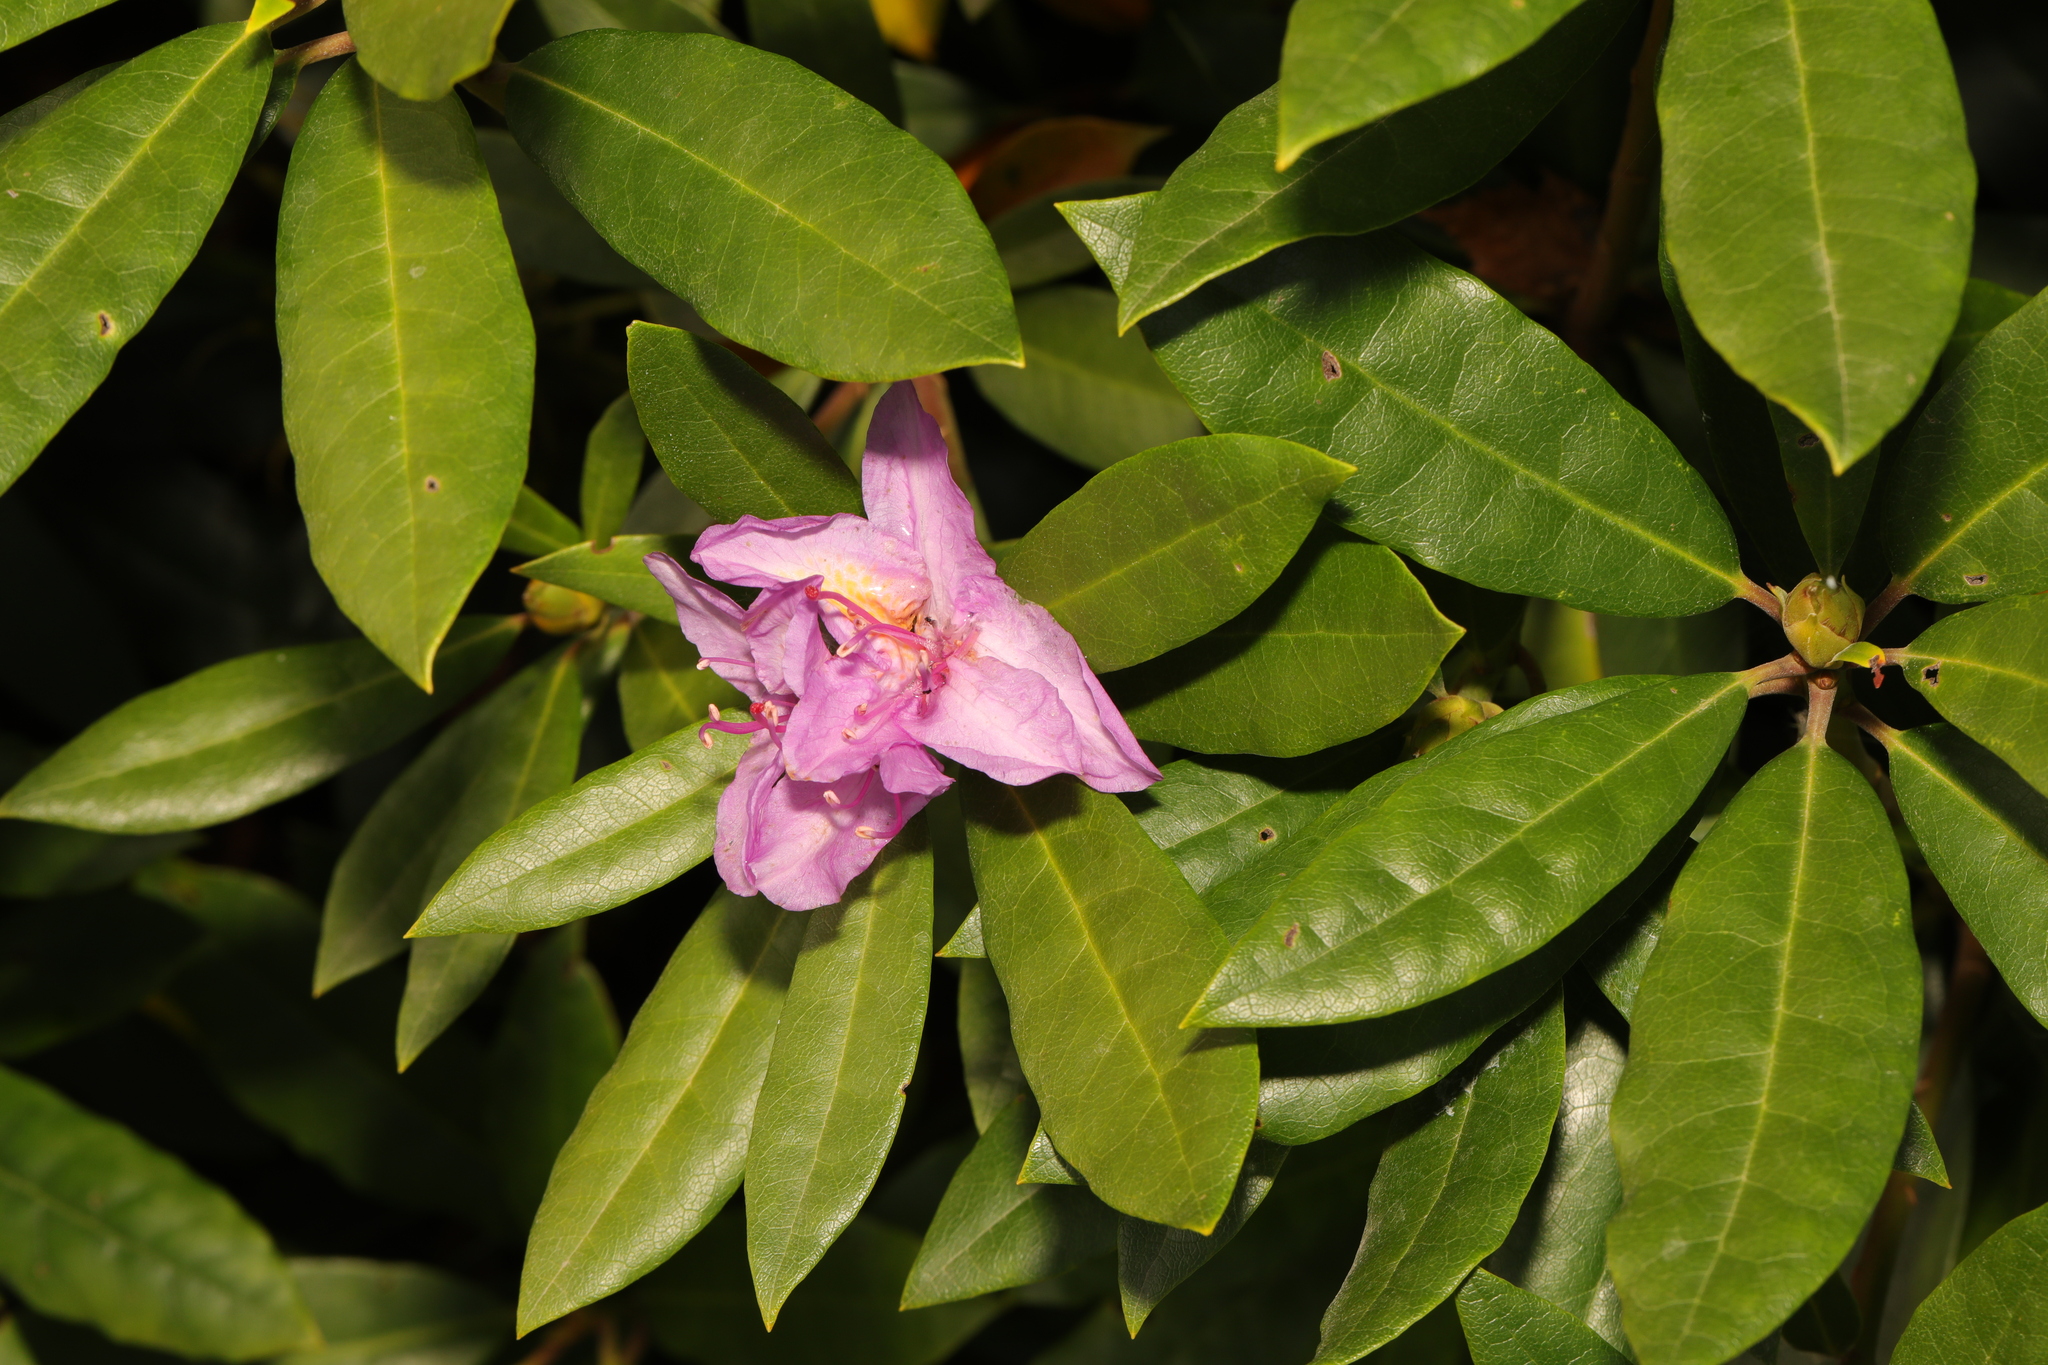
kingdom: Plantae
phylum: Tracheophyta
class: Magnoliopsida
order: Ericales
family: Ericaceae
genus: Rhododendron
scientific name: Rhododendron ponticum
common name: Rhododendron
